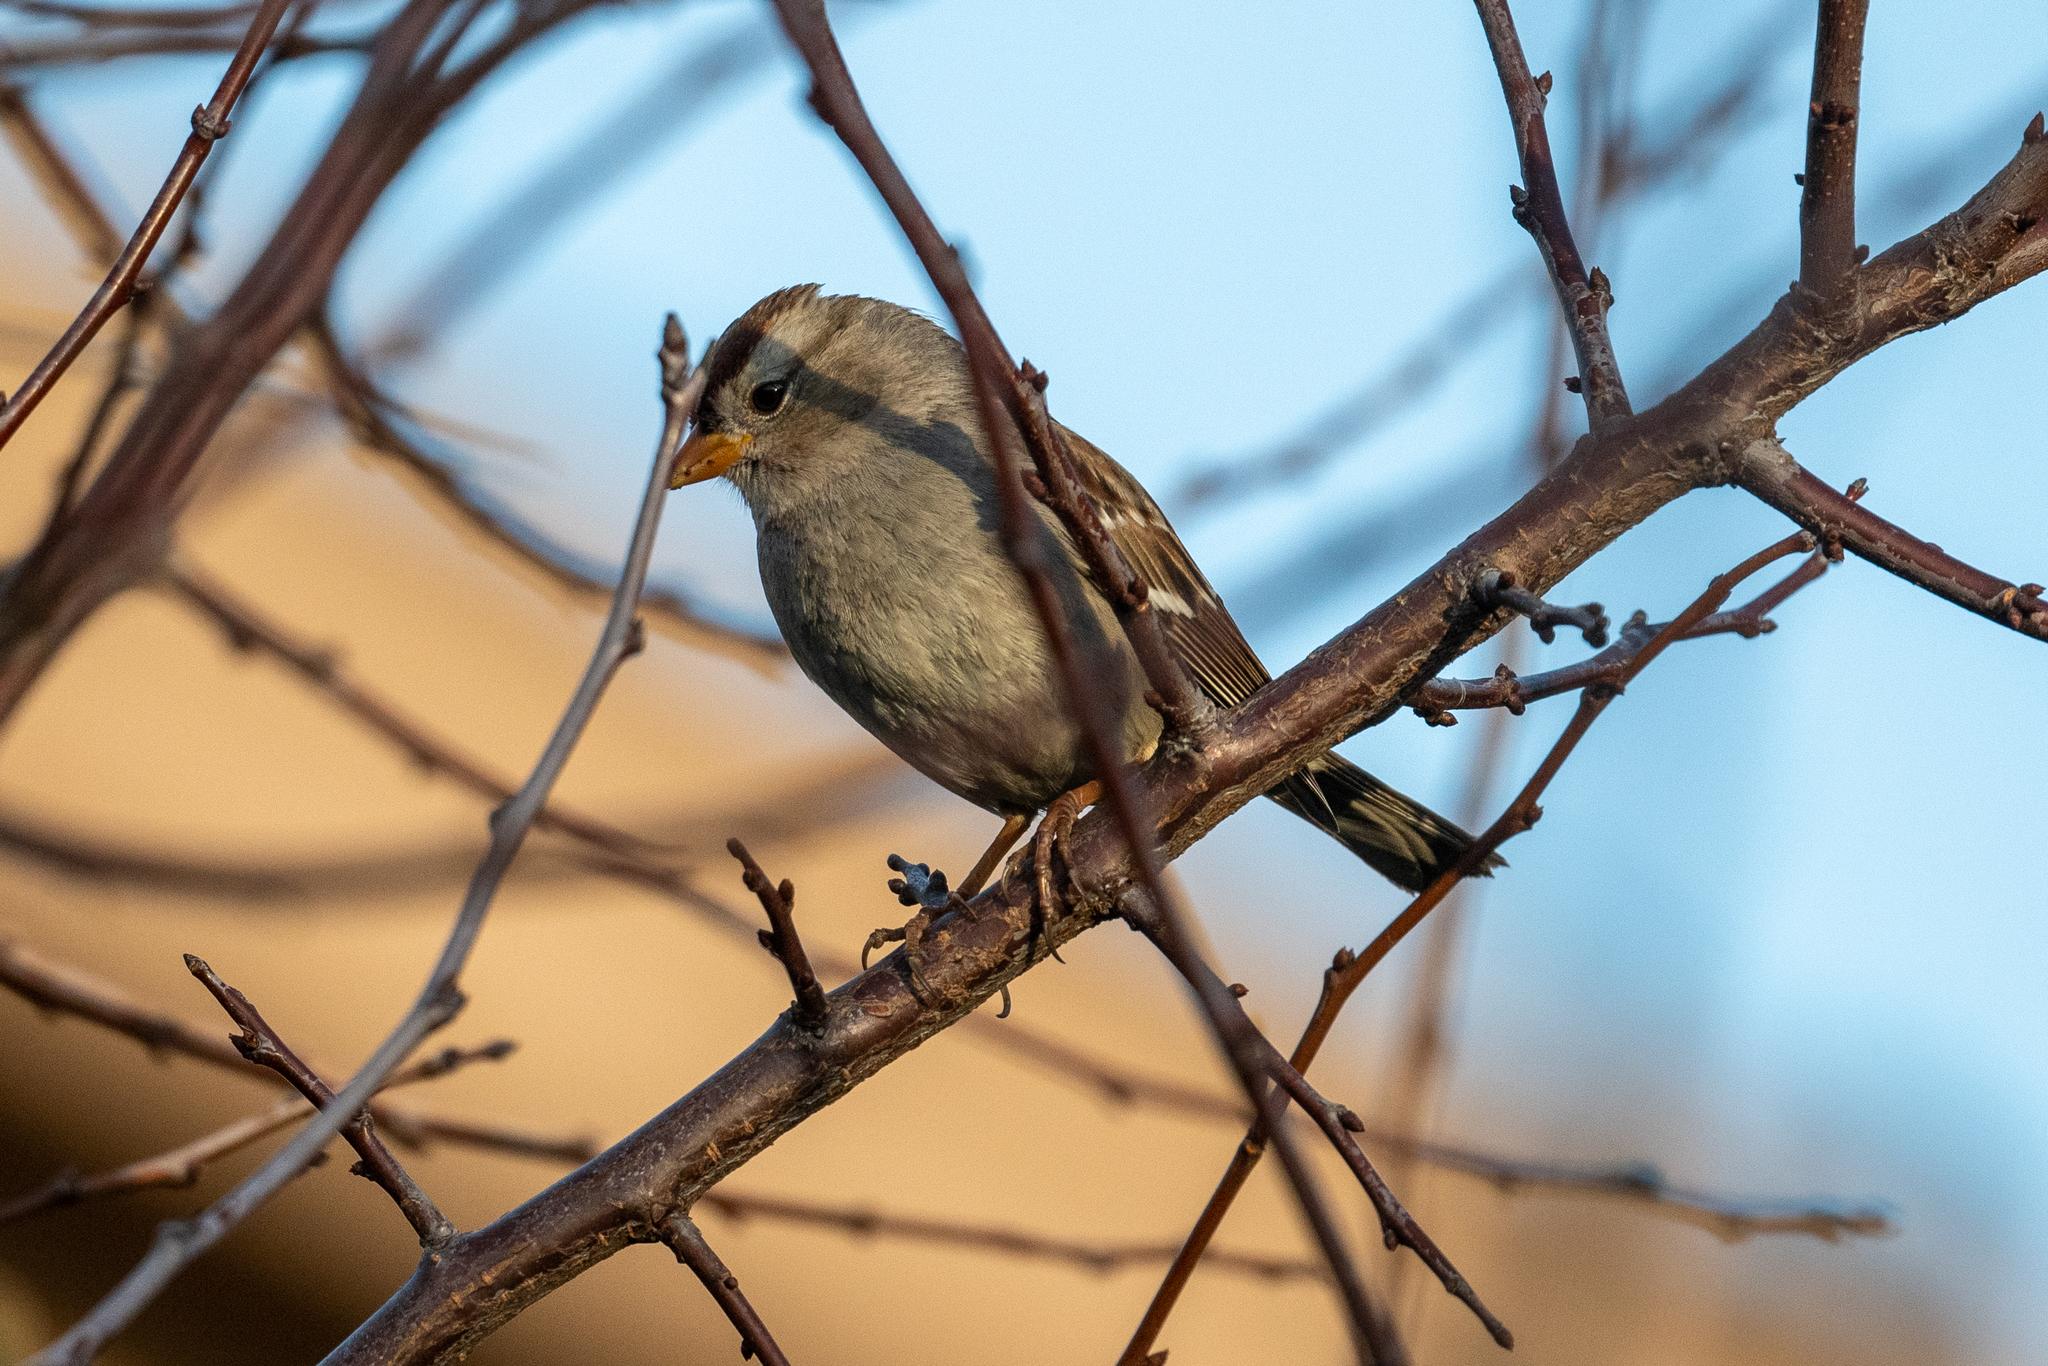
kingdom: Animalia
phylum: Chordata
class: Aves
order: Passeriformes
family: Passerellidae
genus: Zonotrichia
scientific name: Zonotrichia leucophrys
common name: White-crowned sparrow
